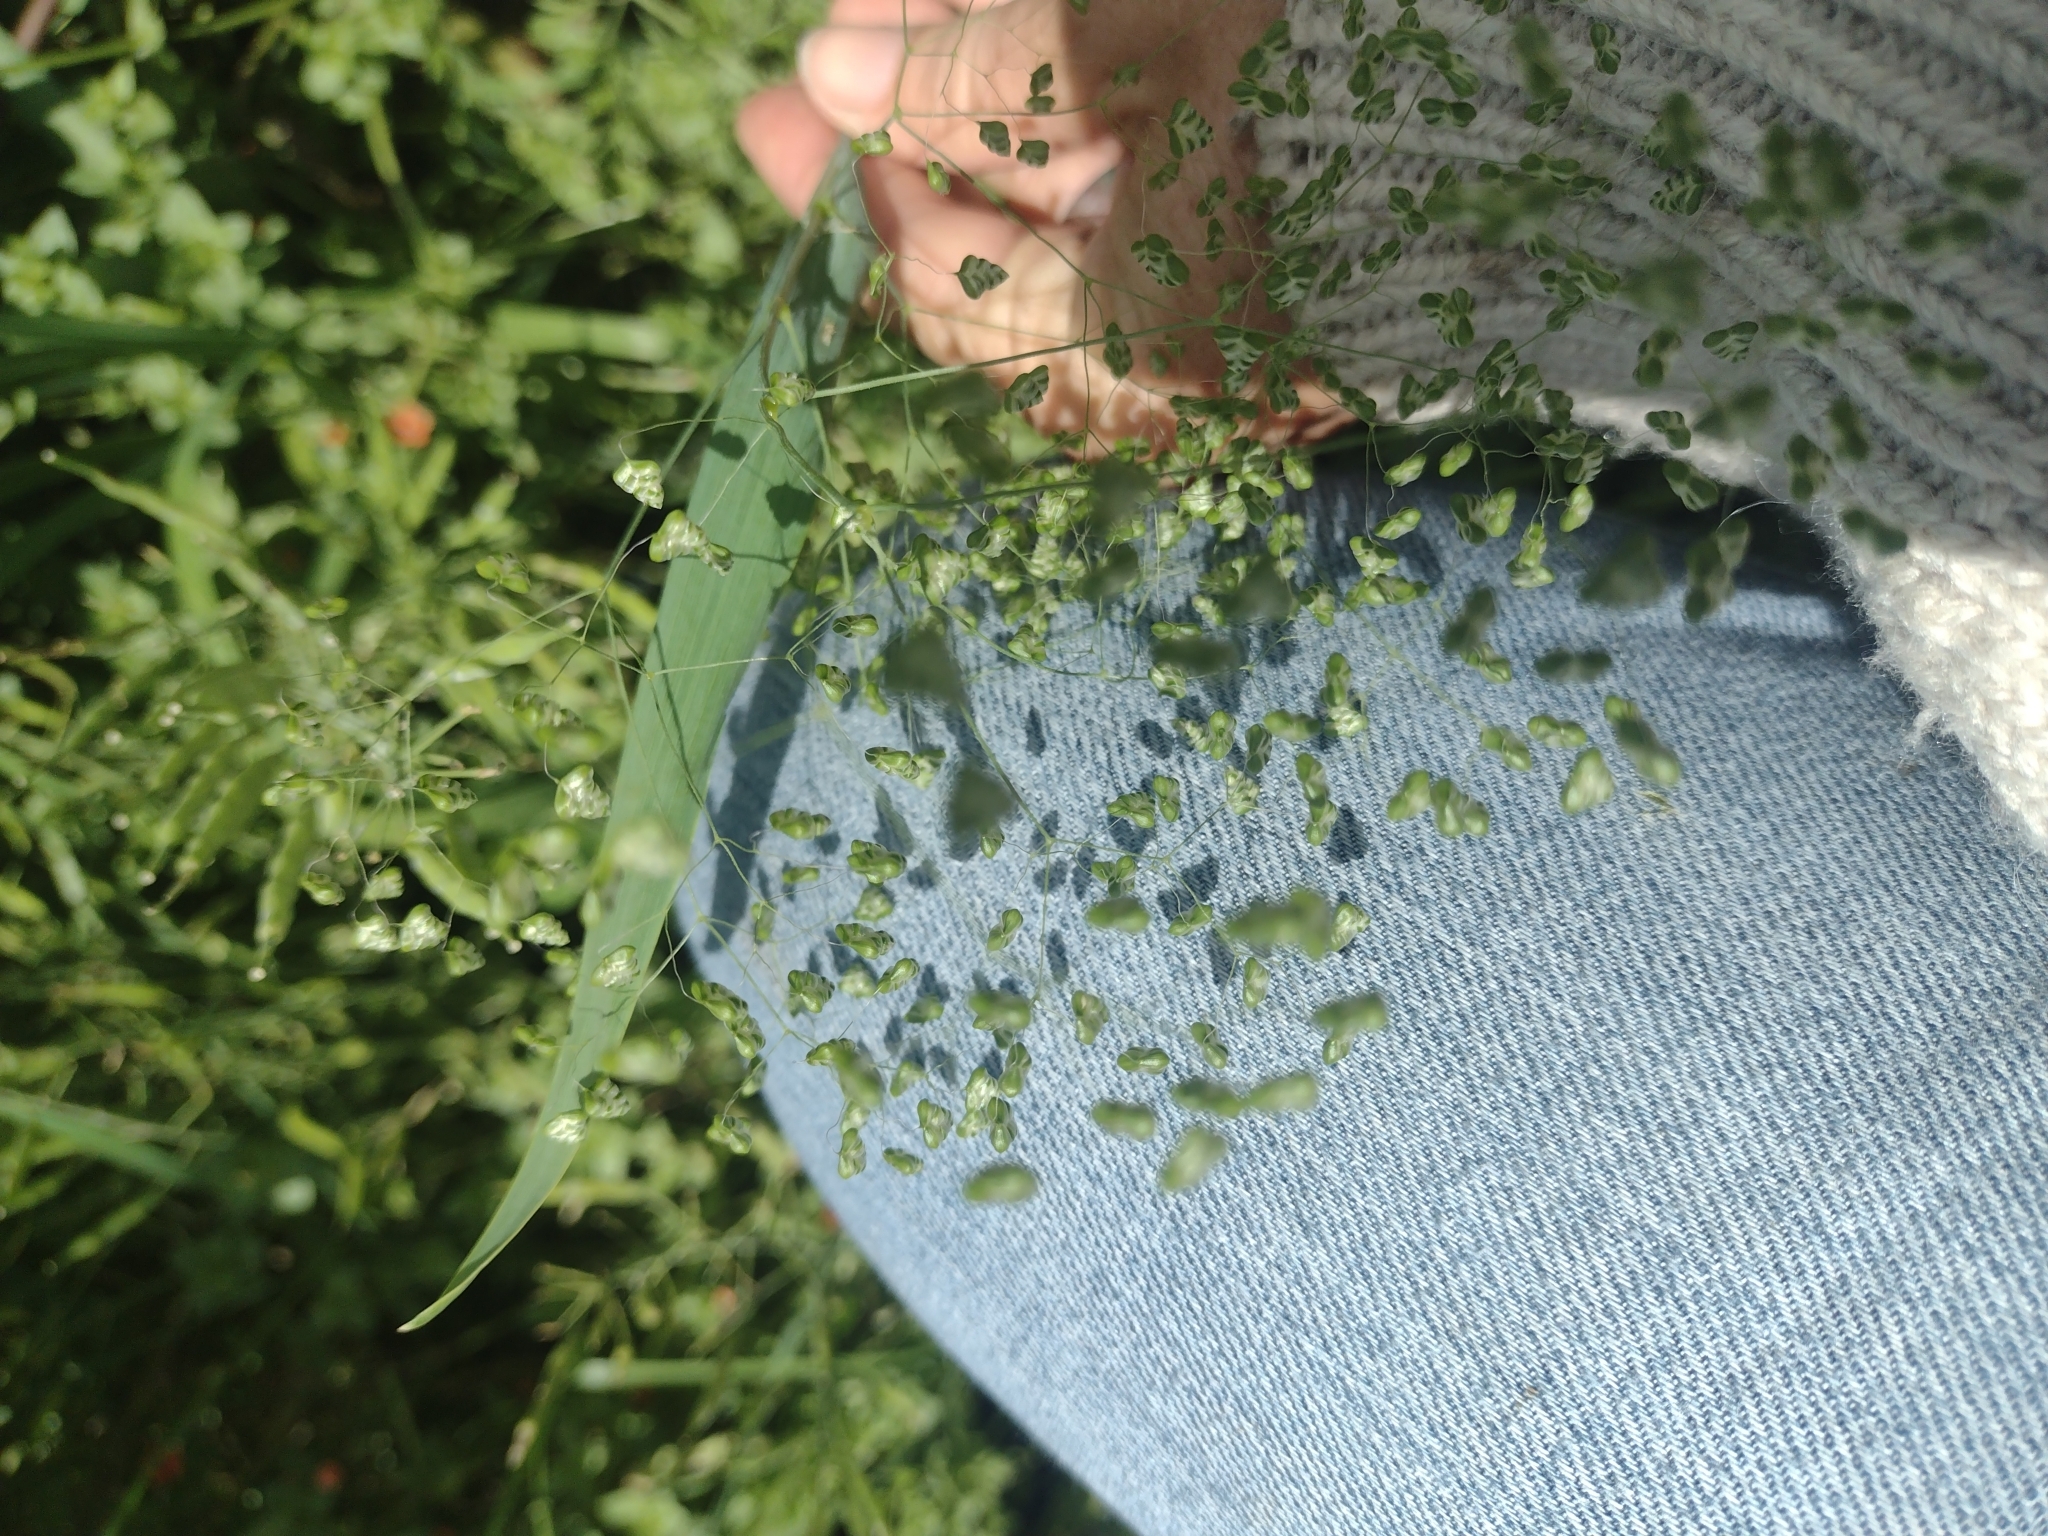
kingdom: Plantae
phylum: Tracheophyta
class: Liliopsida
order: Poales
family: Poaceae
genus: Briza
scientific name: Briza minor
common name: Lesser quaking-grass
